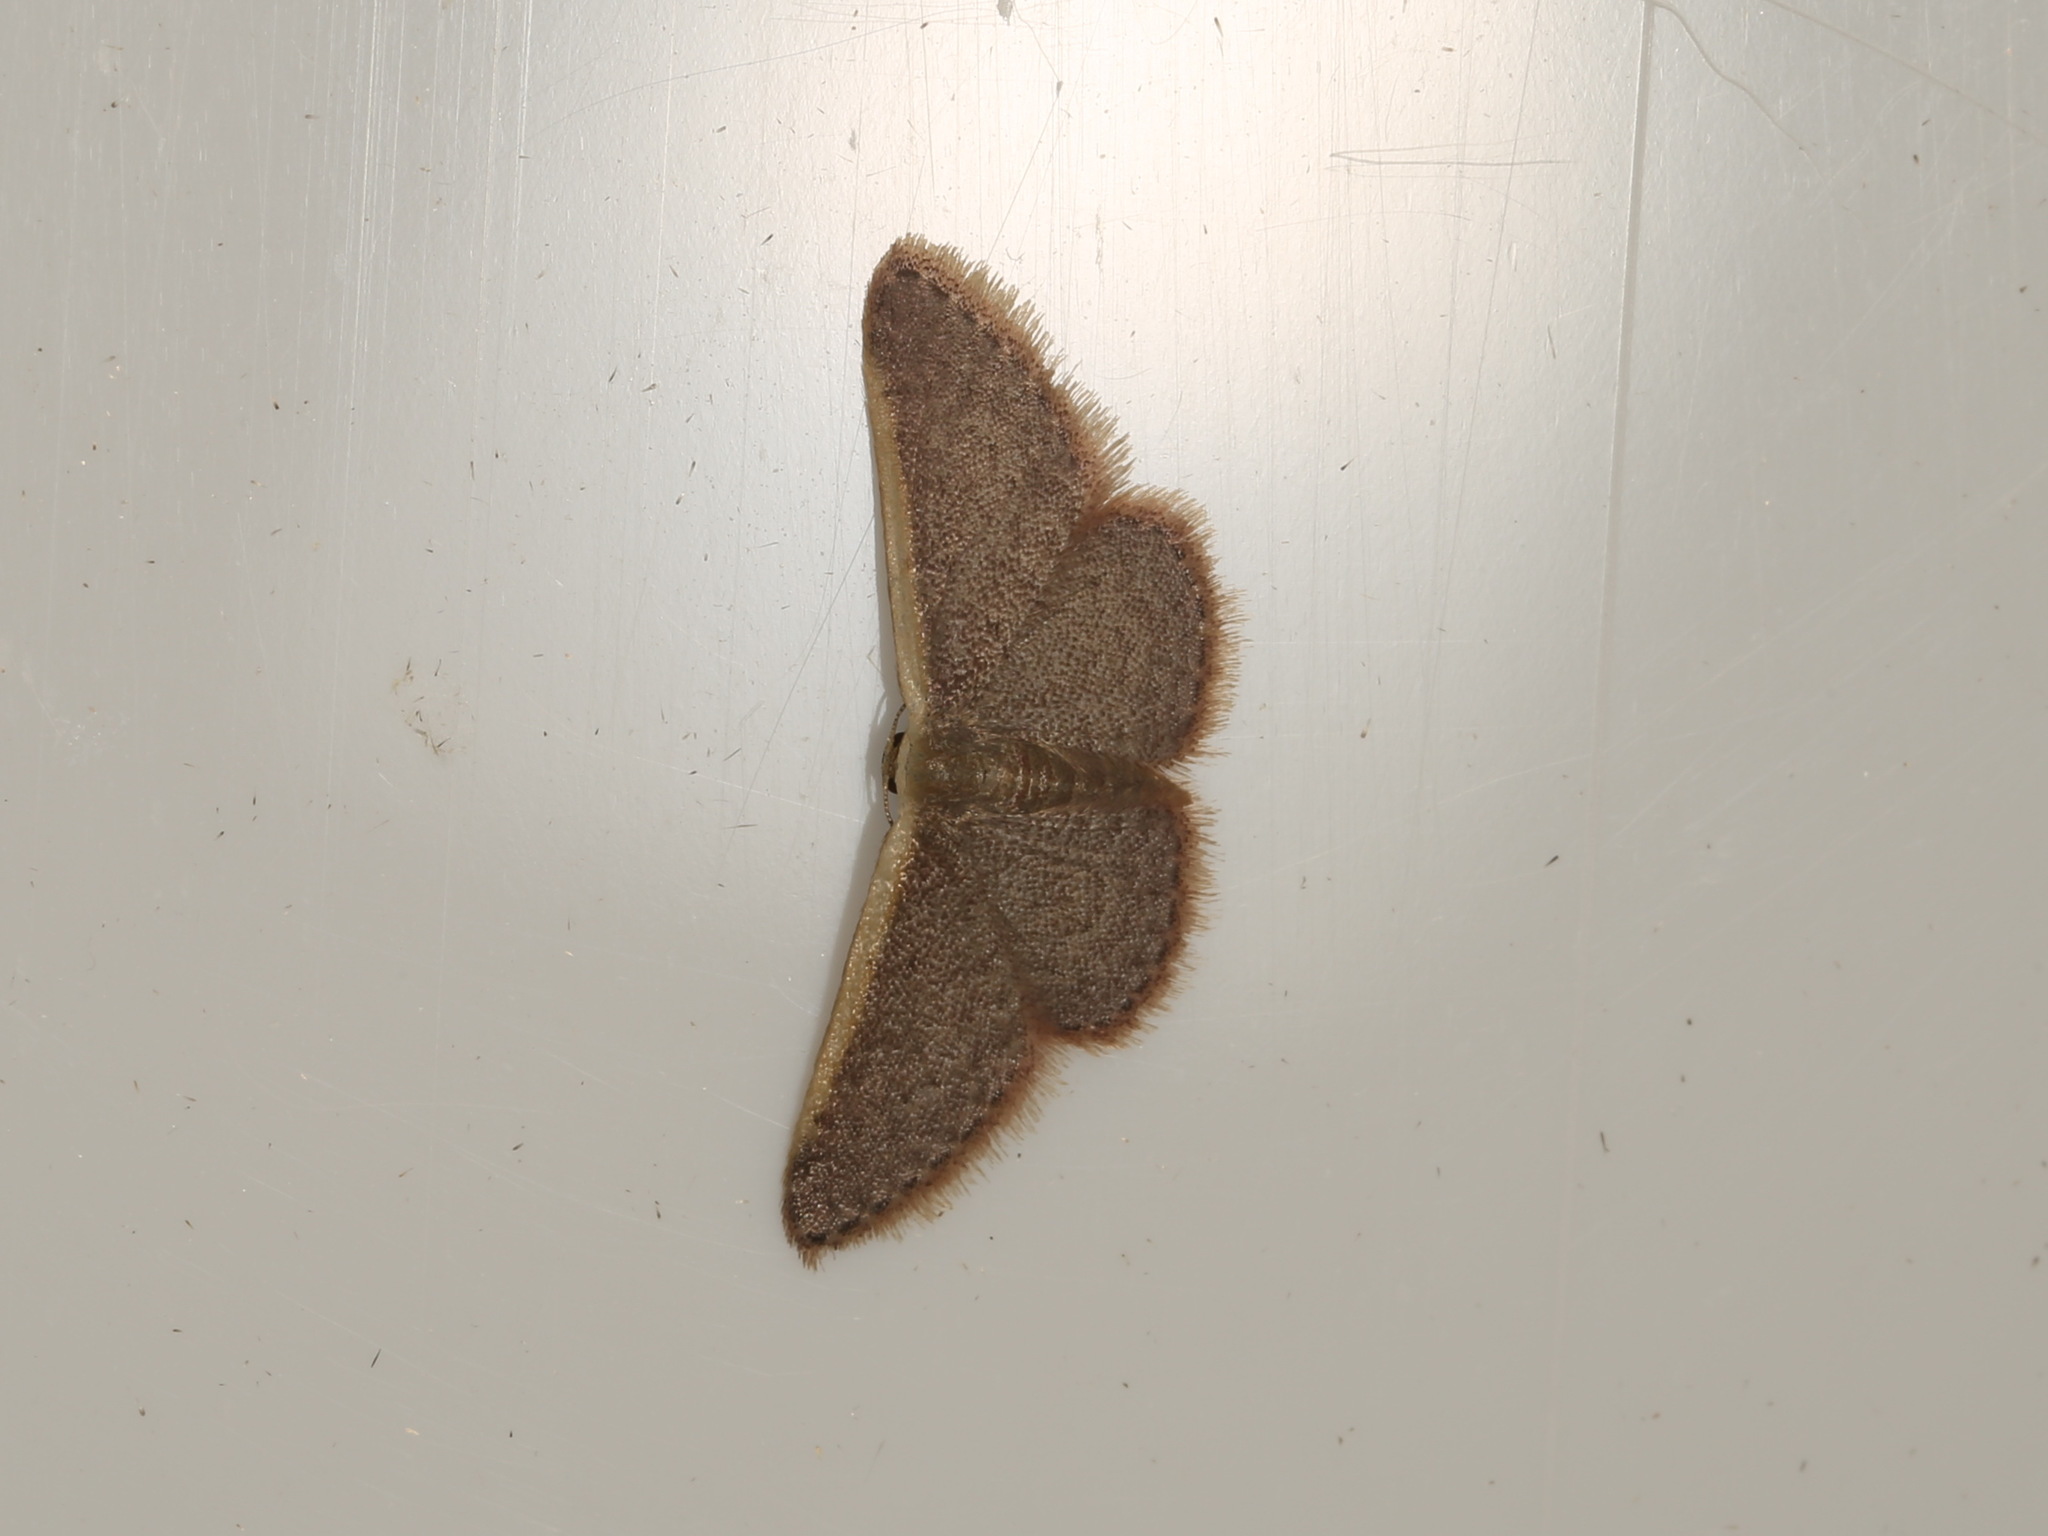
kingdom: Animalia
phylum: Arthropoda
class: Insecta
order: Lepidoptera
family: Geometridae
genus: Idaea
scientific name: Idaea inversata
